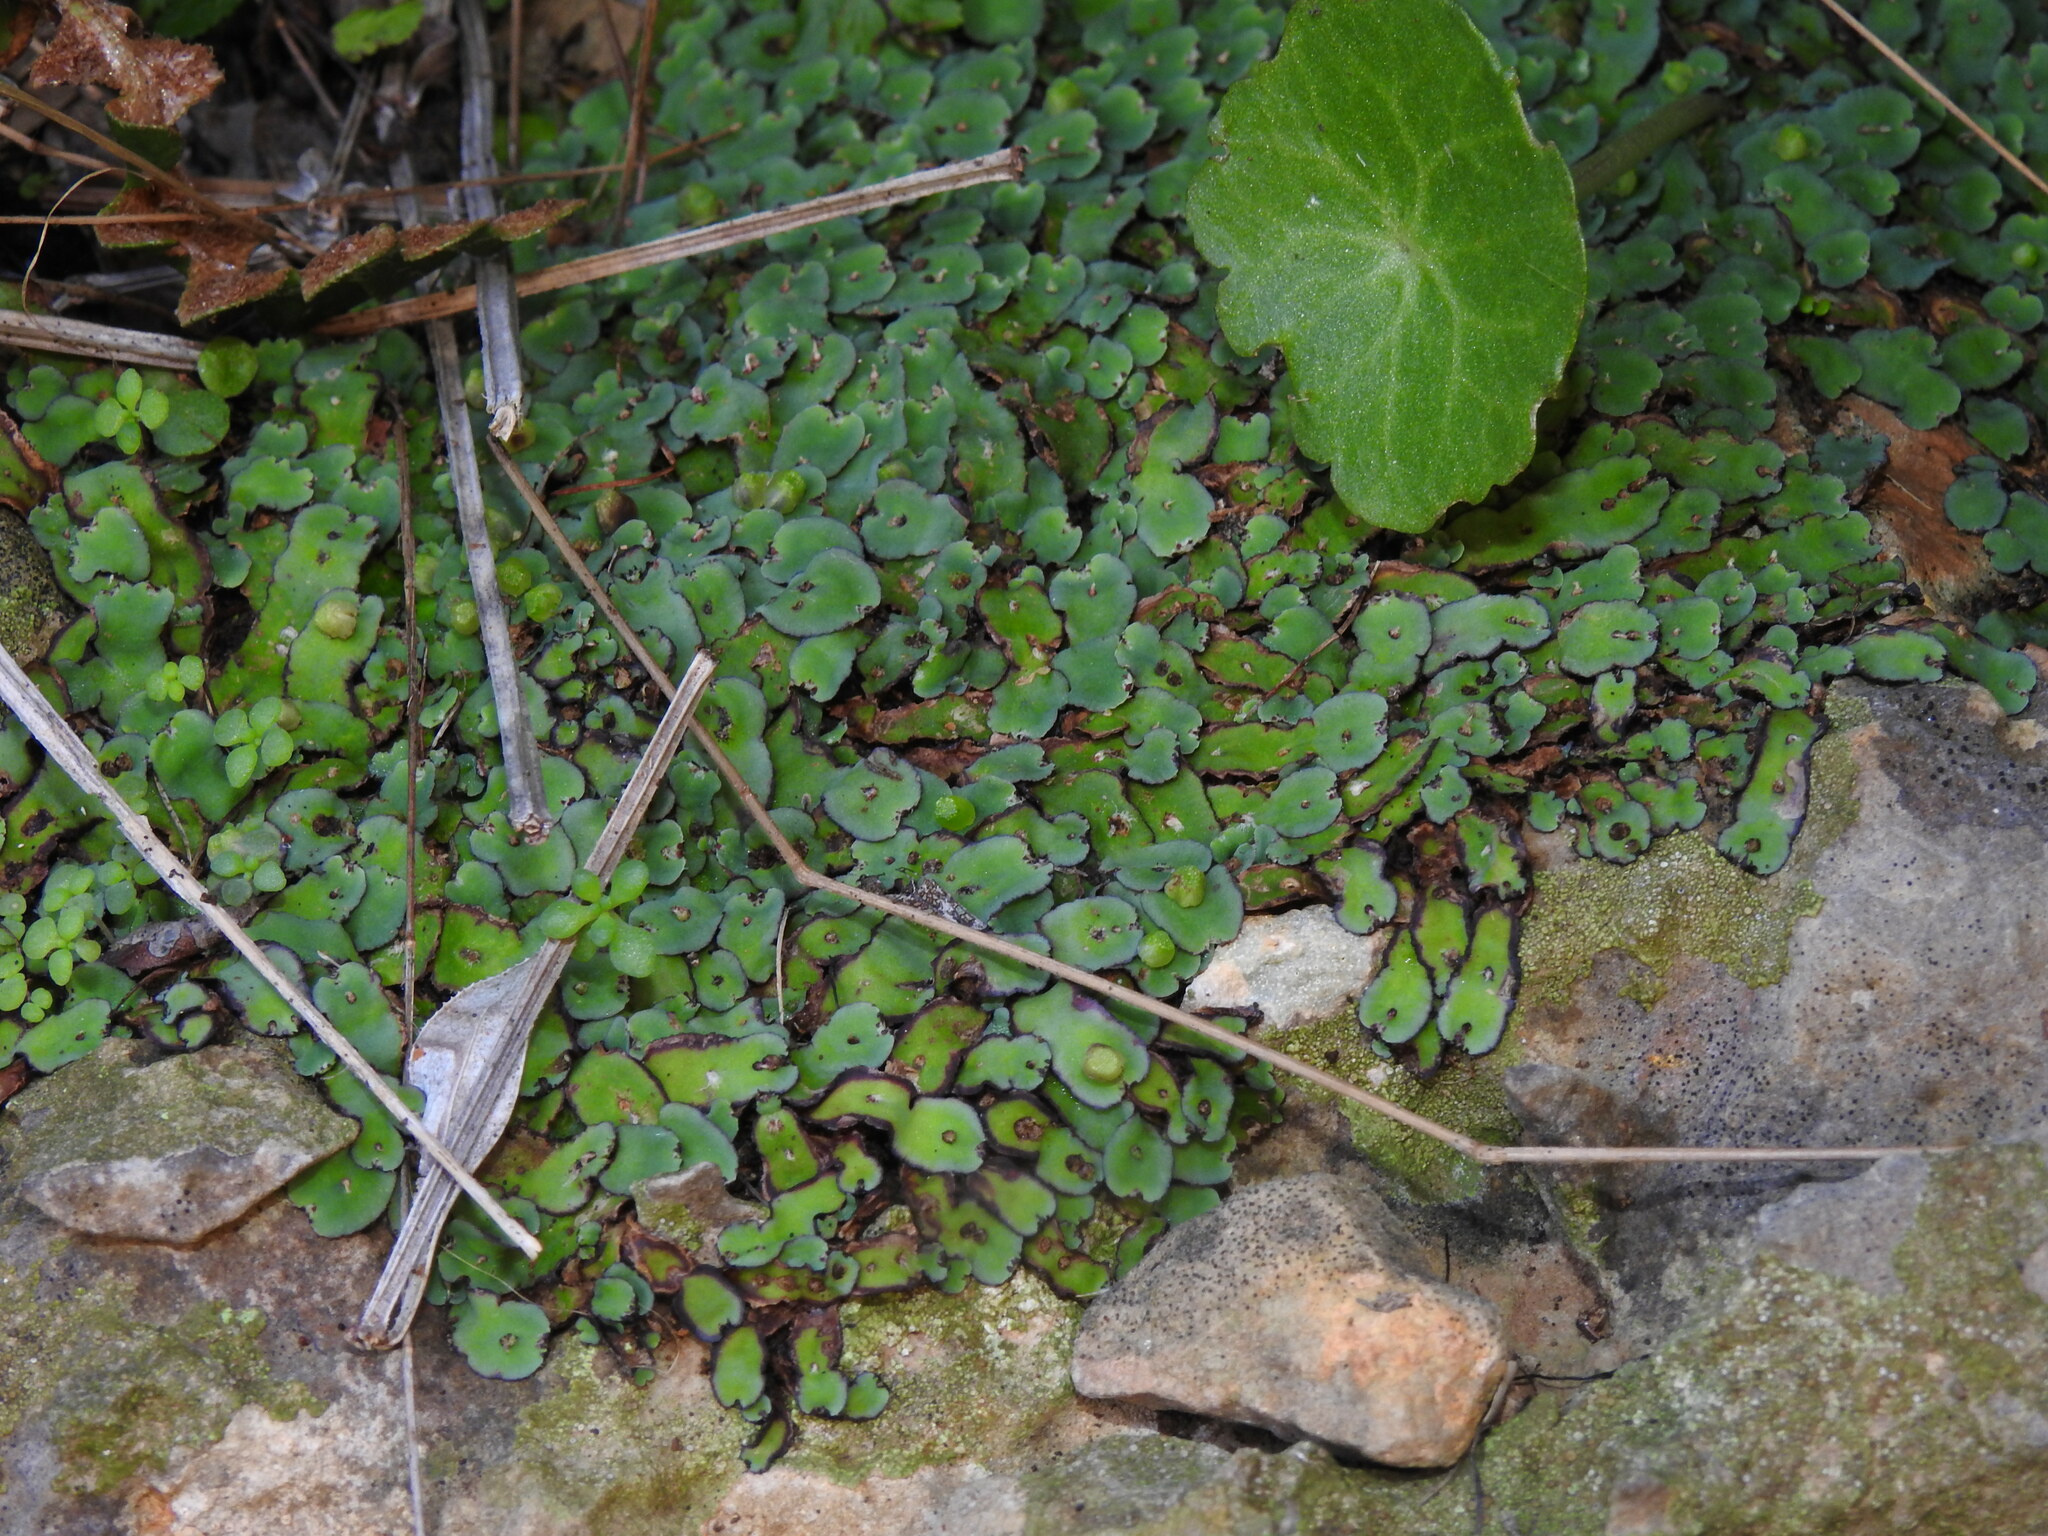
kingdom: Plantae
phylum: Marchantiophyta
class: Marchantiopsida
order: Marchantiales
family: Aytoniaceae
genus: Plagiochasma
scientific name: Plagiochasma rupestre
